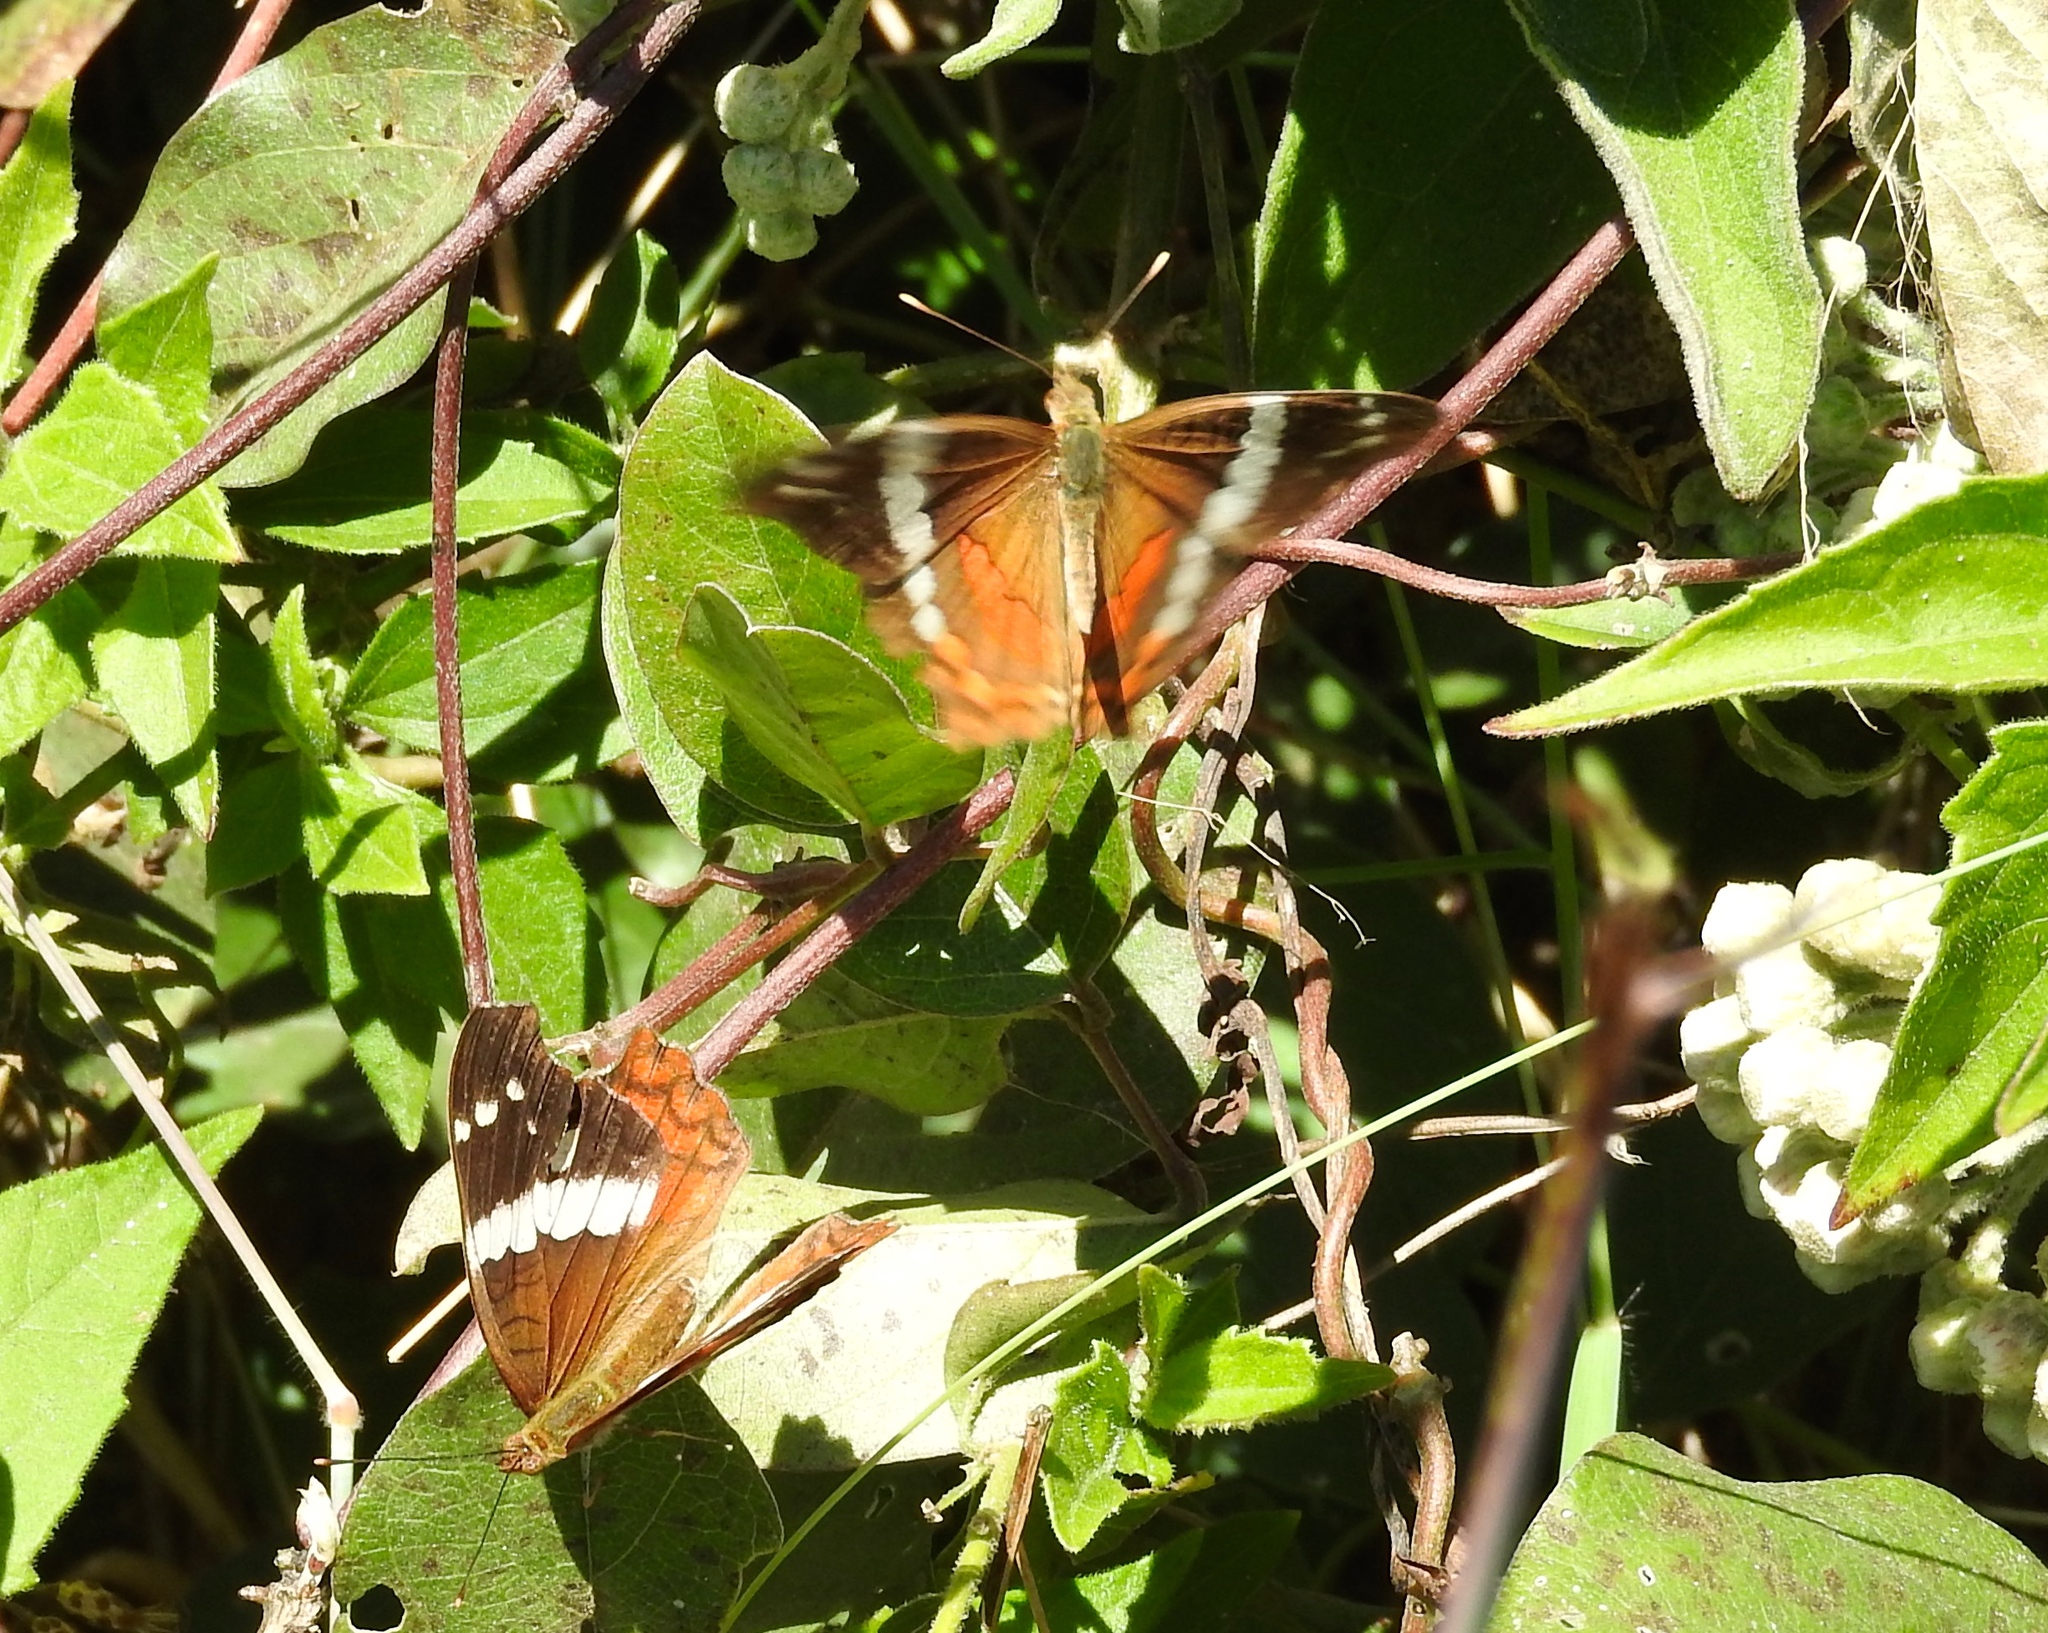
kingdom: Animalia
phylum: Arthropoda
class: Insecta
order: Lepidoptera
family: Nymphalidae
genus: Anartia
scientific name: Anartia fatima
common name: Banded peacock
